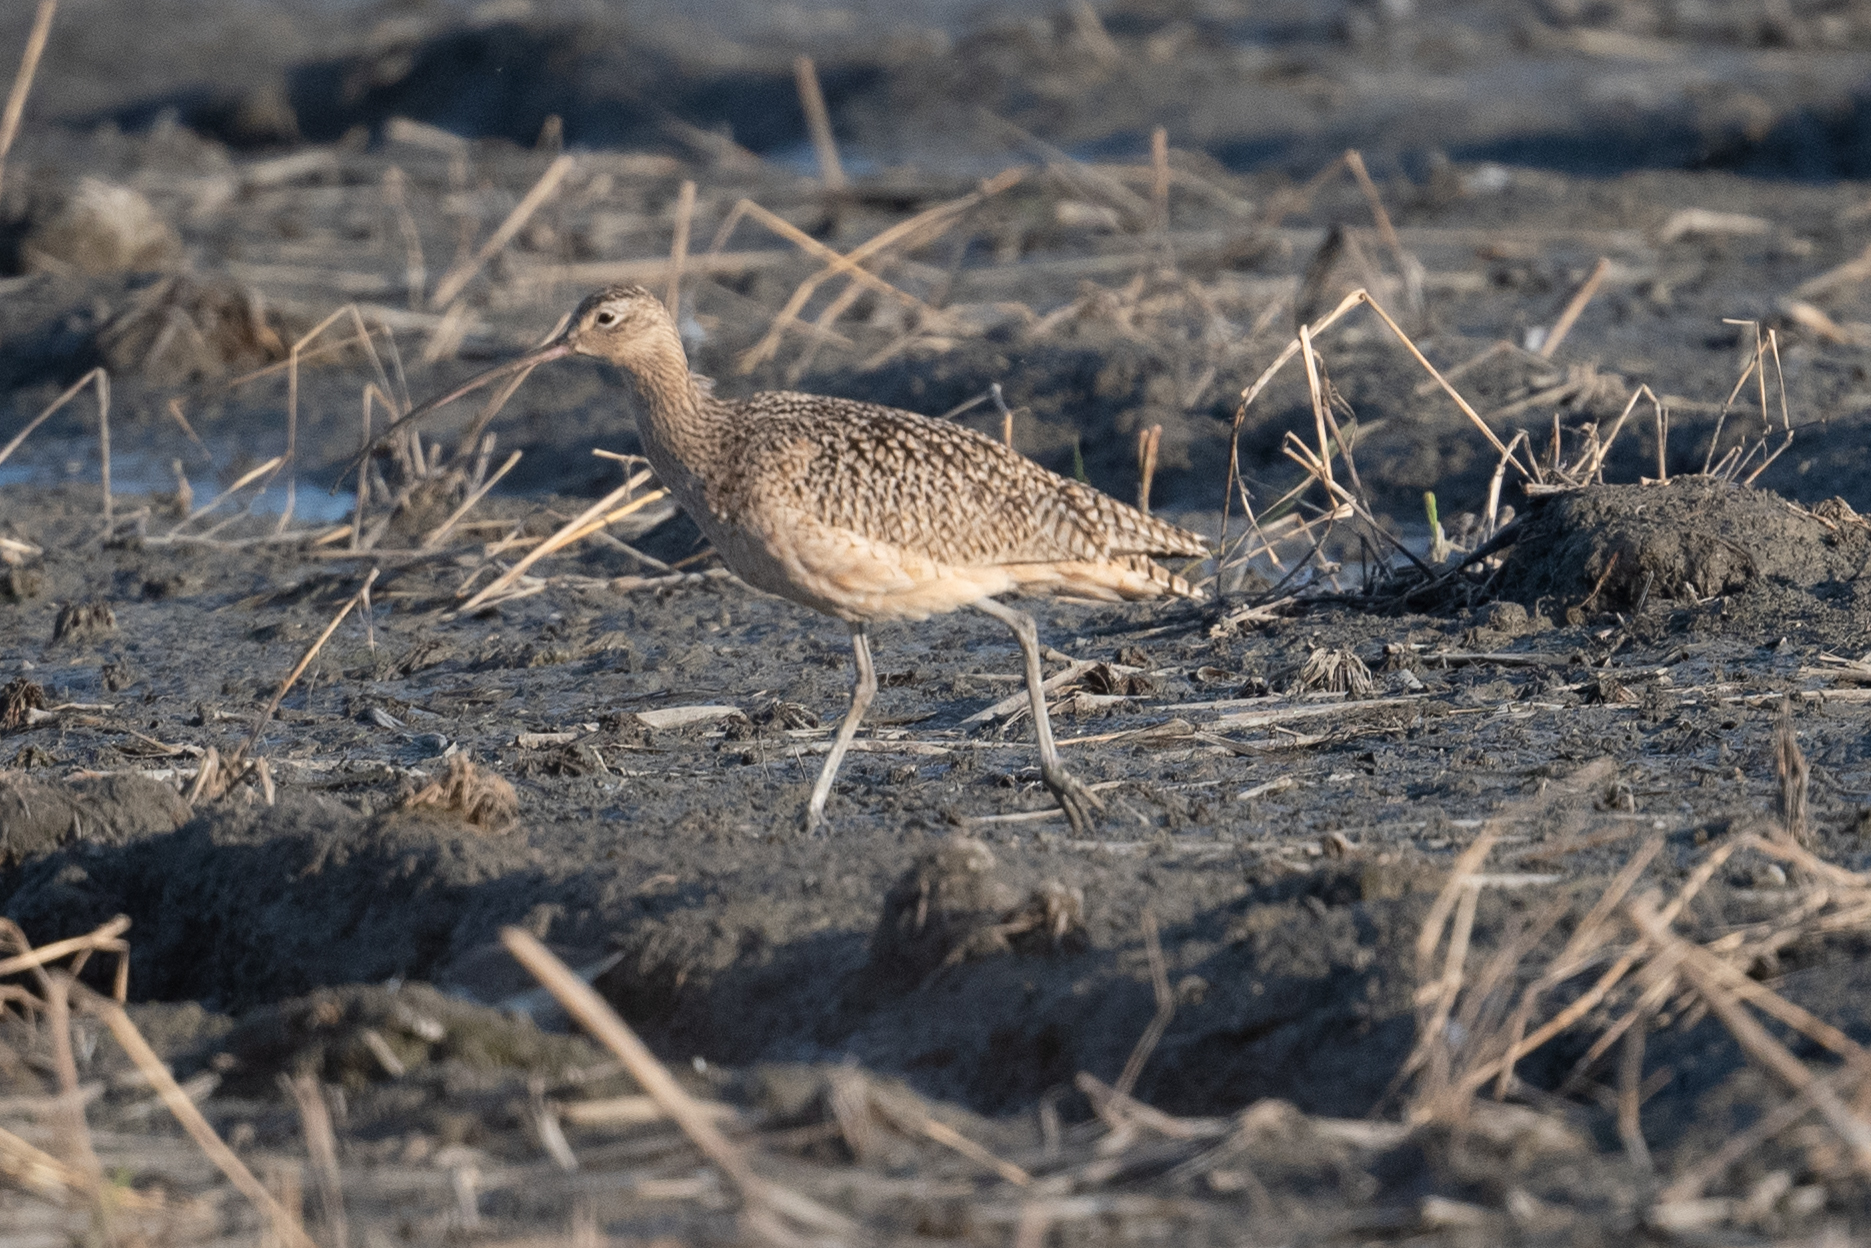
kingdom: Animalia
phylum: Chordata
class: Aves
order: Charadriiformes
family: Scolopacidae
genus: Numenius
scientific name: Numenius americanus
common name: Long-billed curlew
